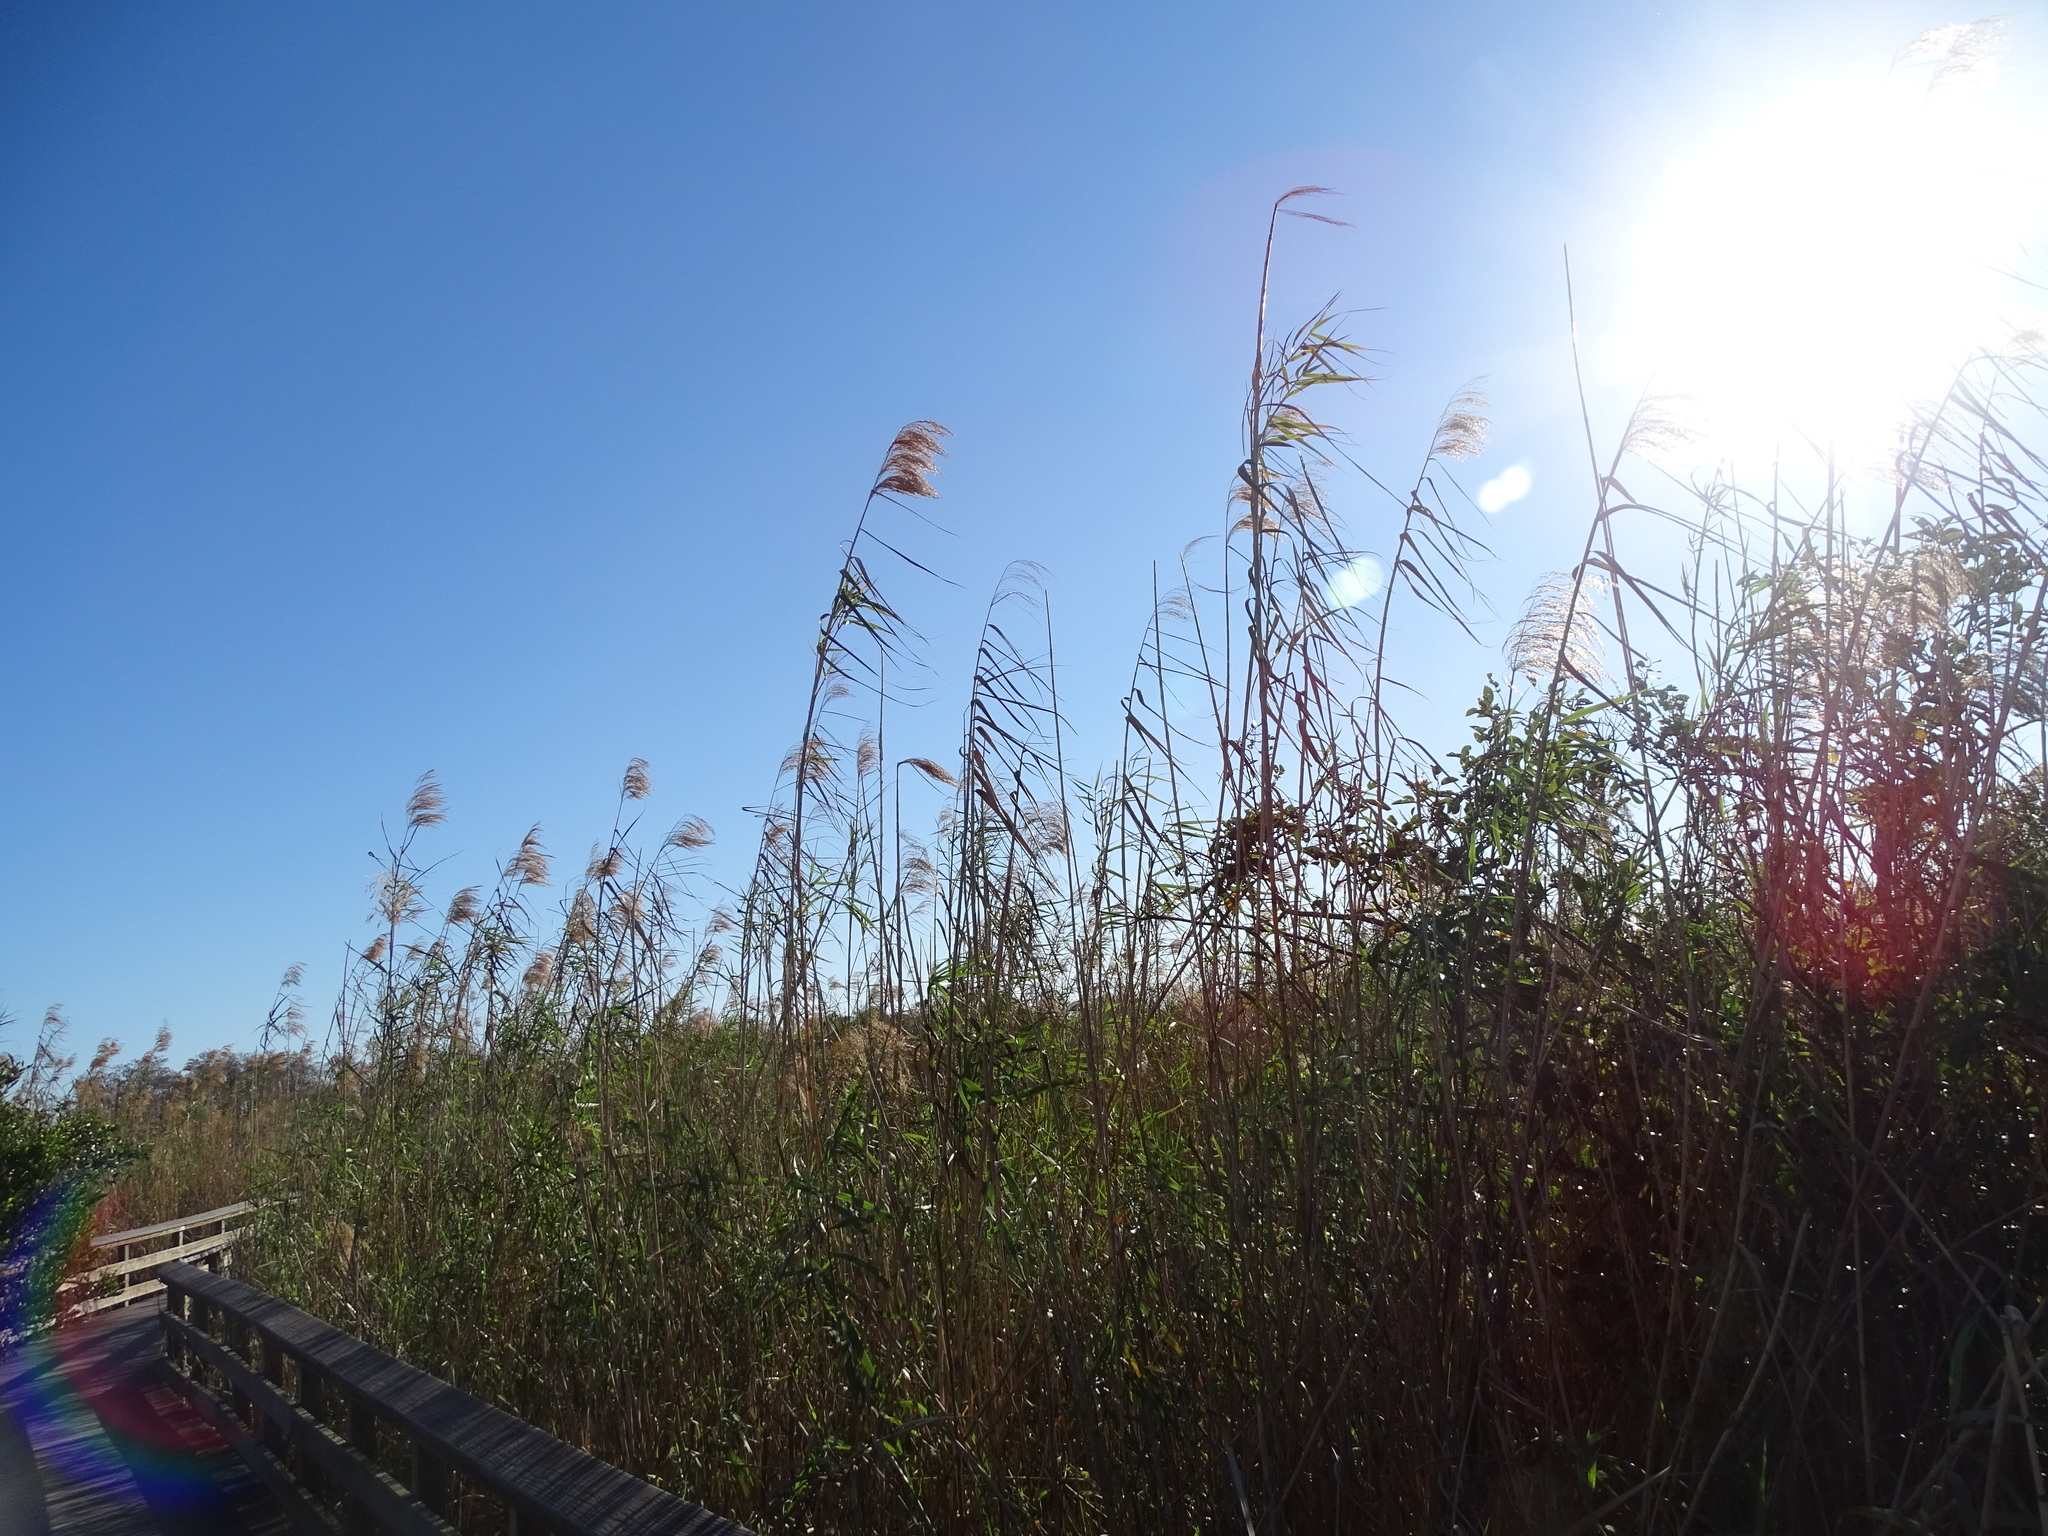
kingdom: Plantae
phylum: Tracheophyta
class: Liliopsida
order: Poales
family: Poaceae
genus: Phragmites
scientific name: Phragmites australis
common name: Common reed
